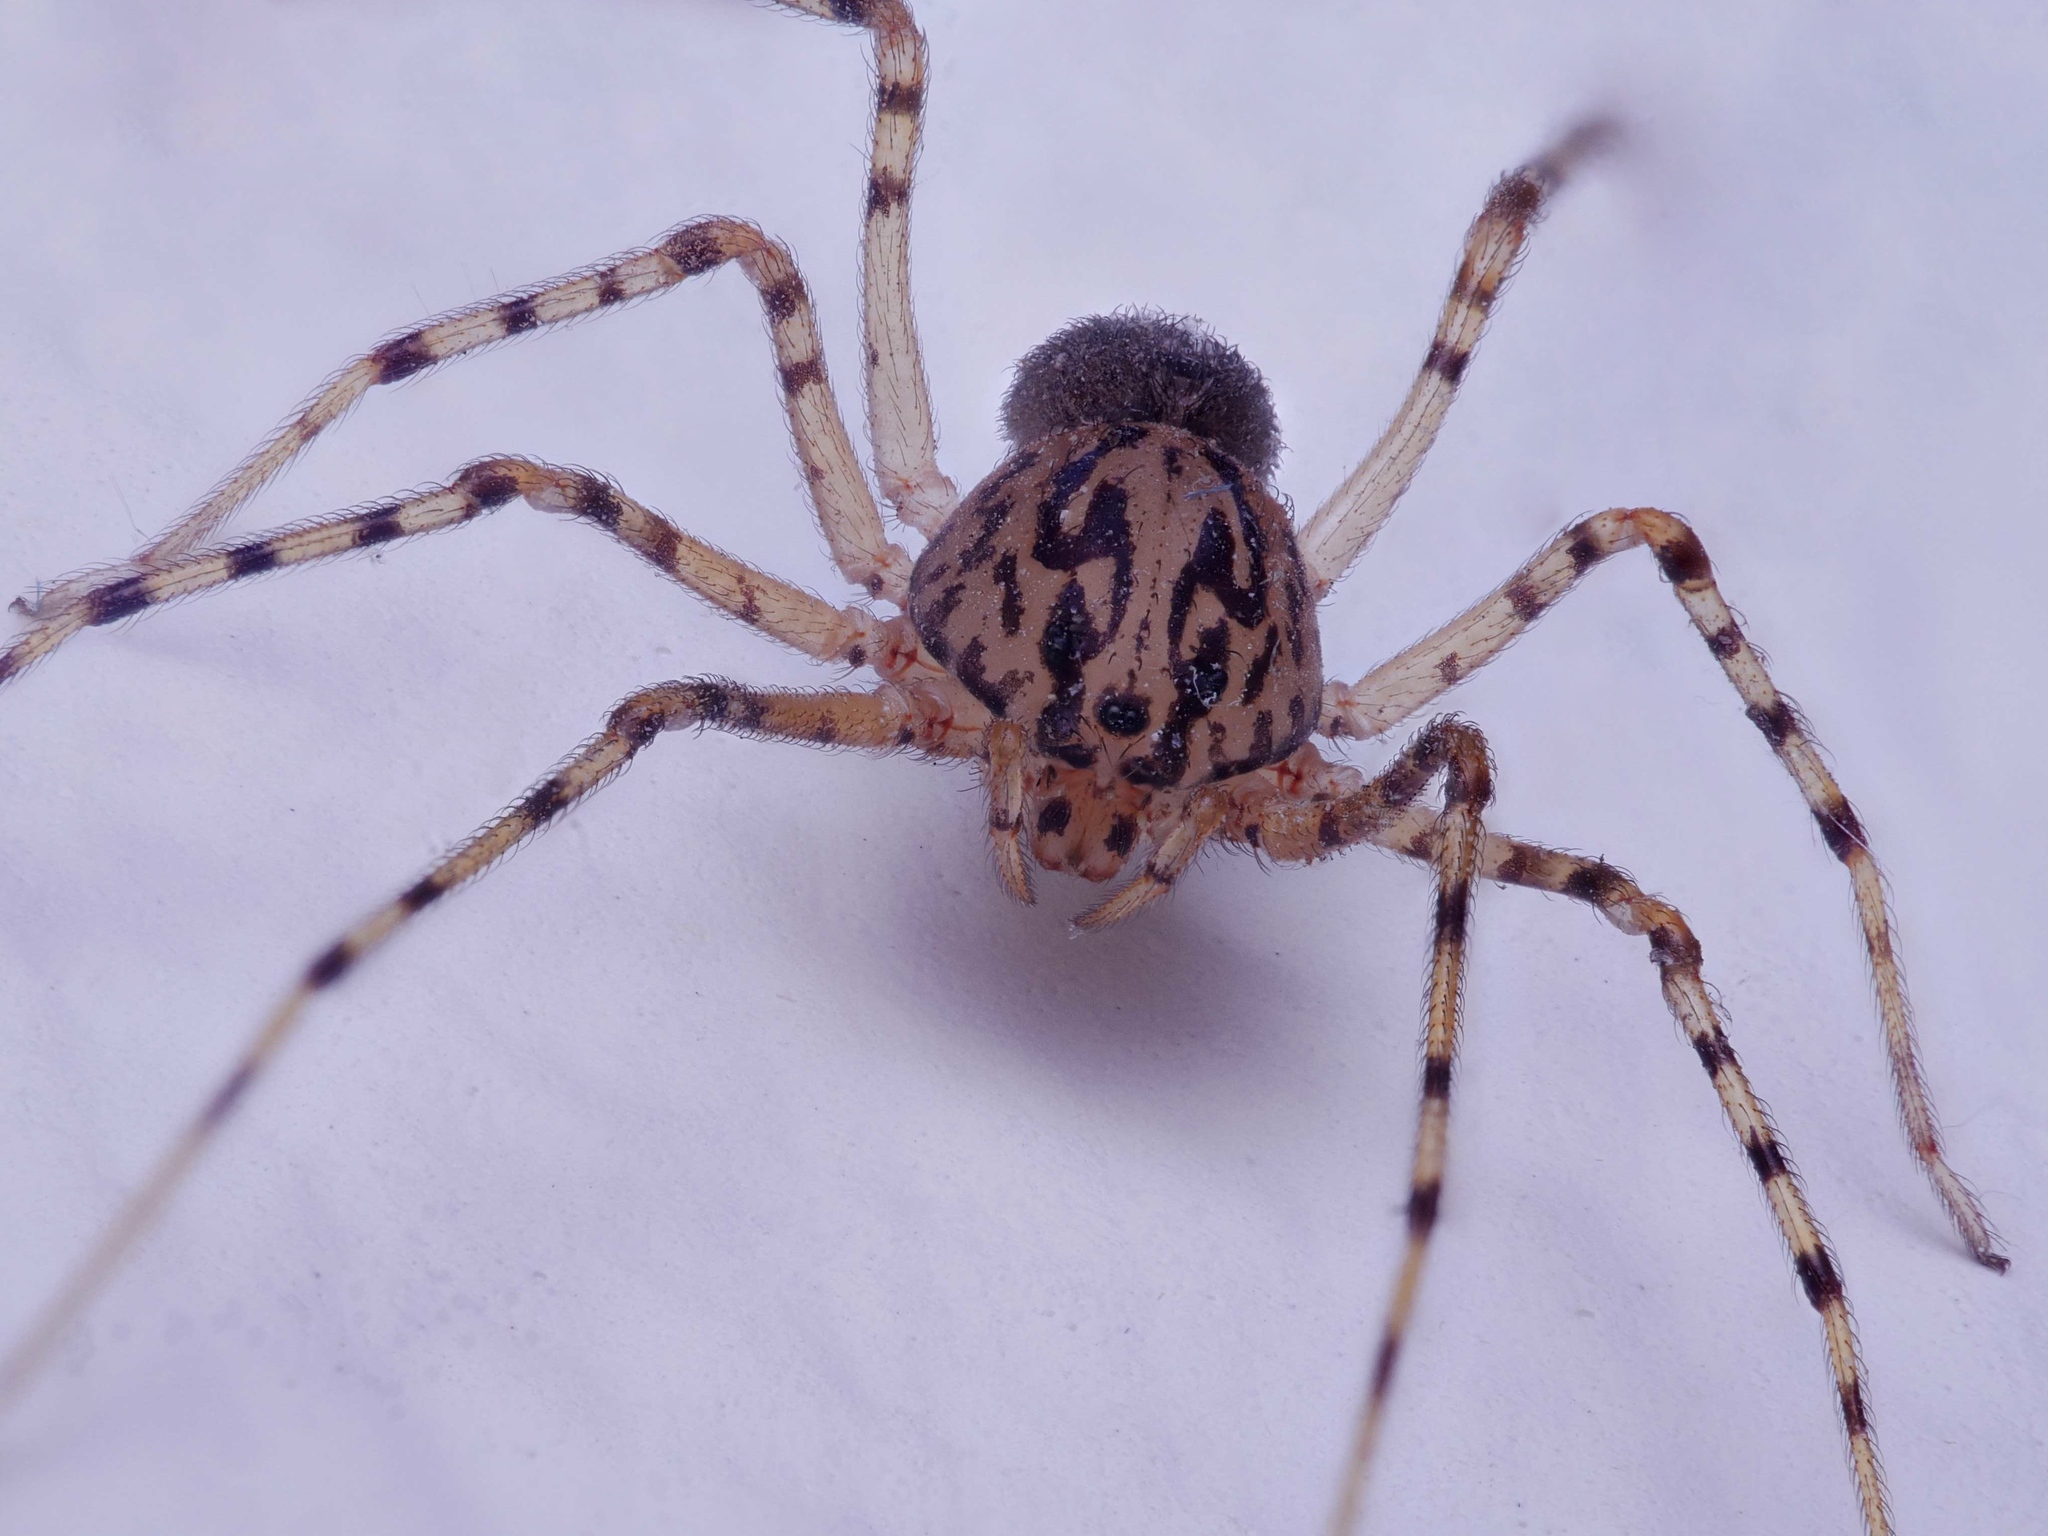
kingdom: Animalia
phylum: Arthropoda
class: Arachnida
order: Araneae
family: Scytodidae
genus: Scytodes
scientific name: Scytodes thoracica
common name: Spitting spider
